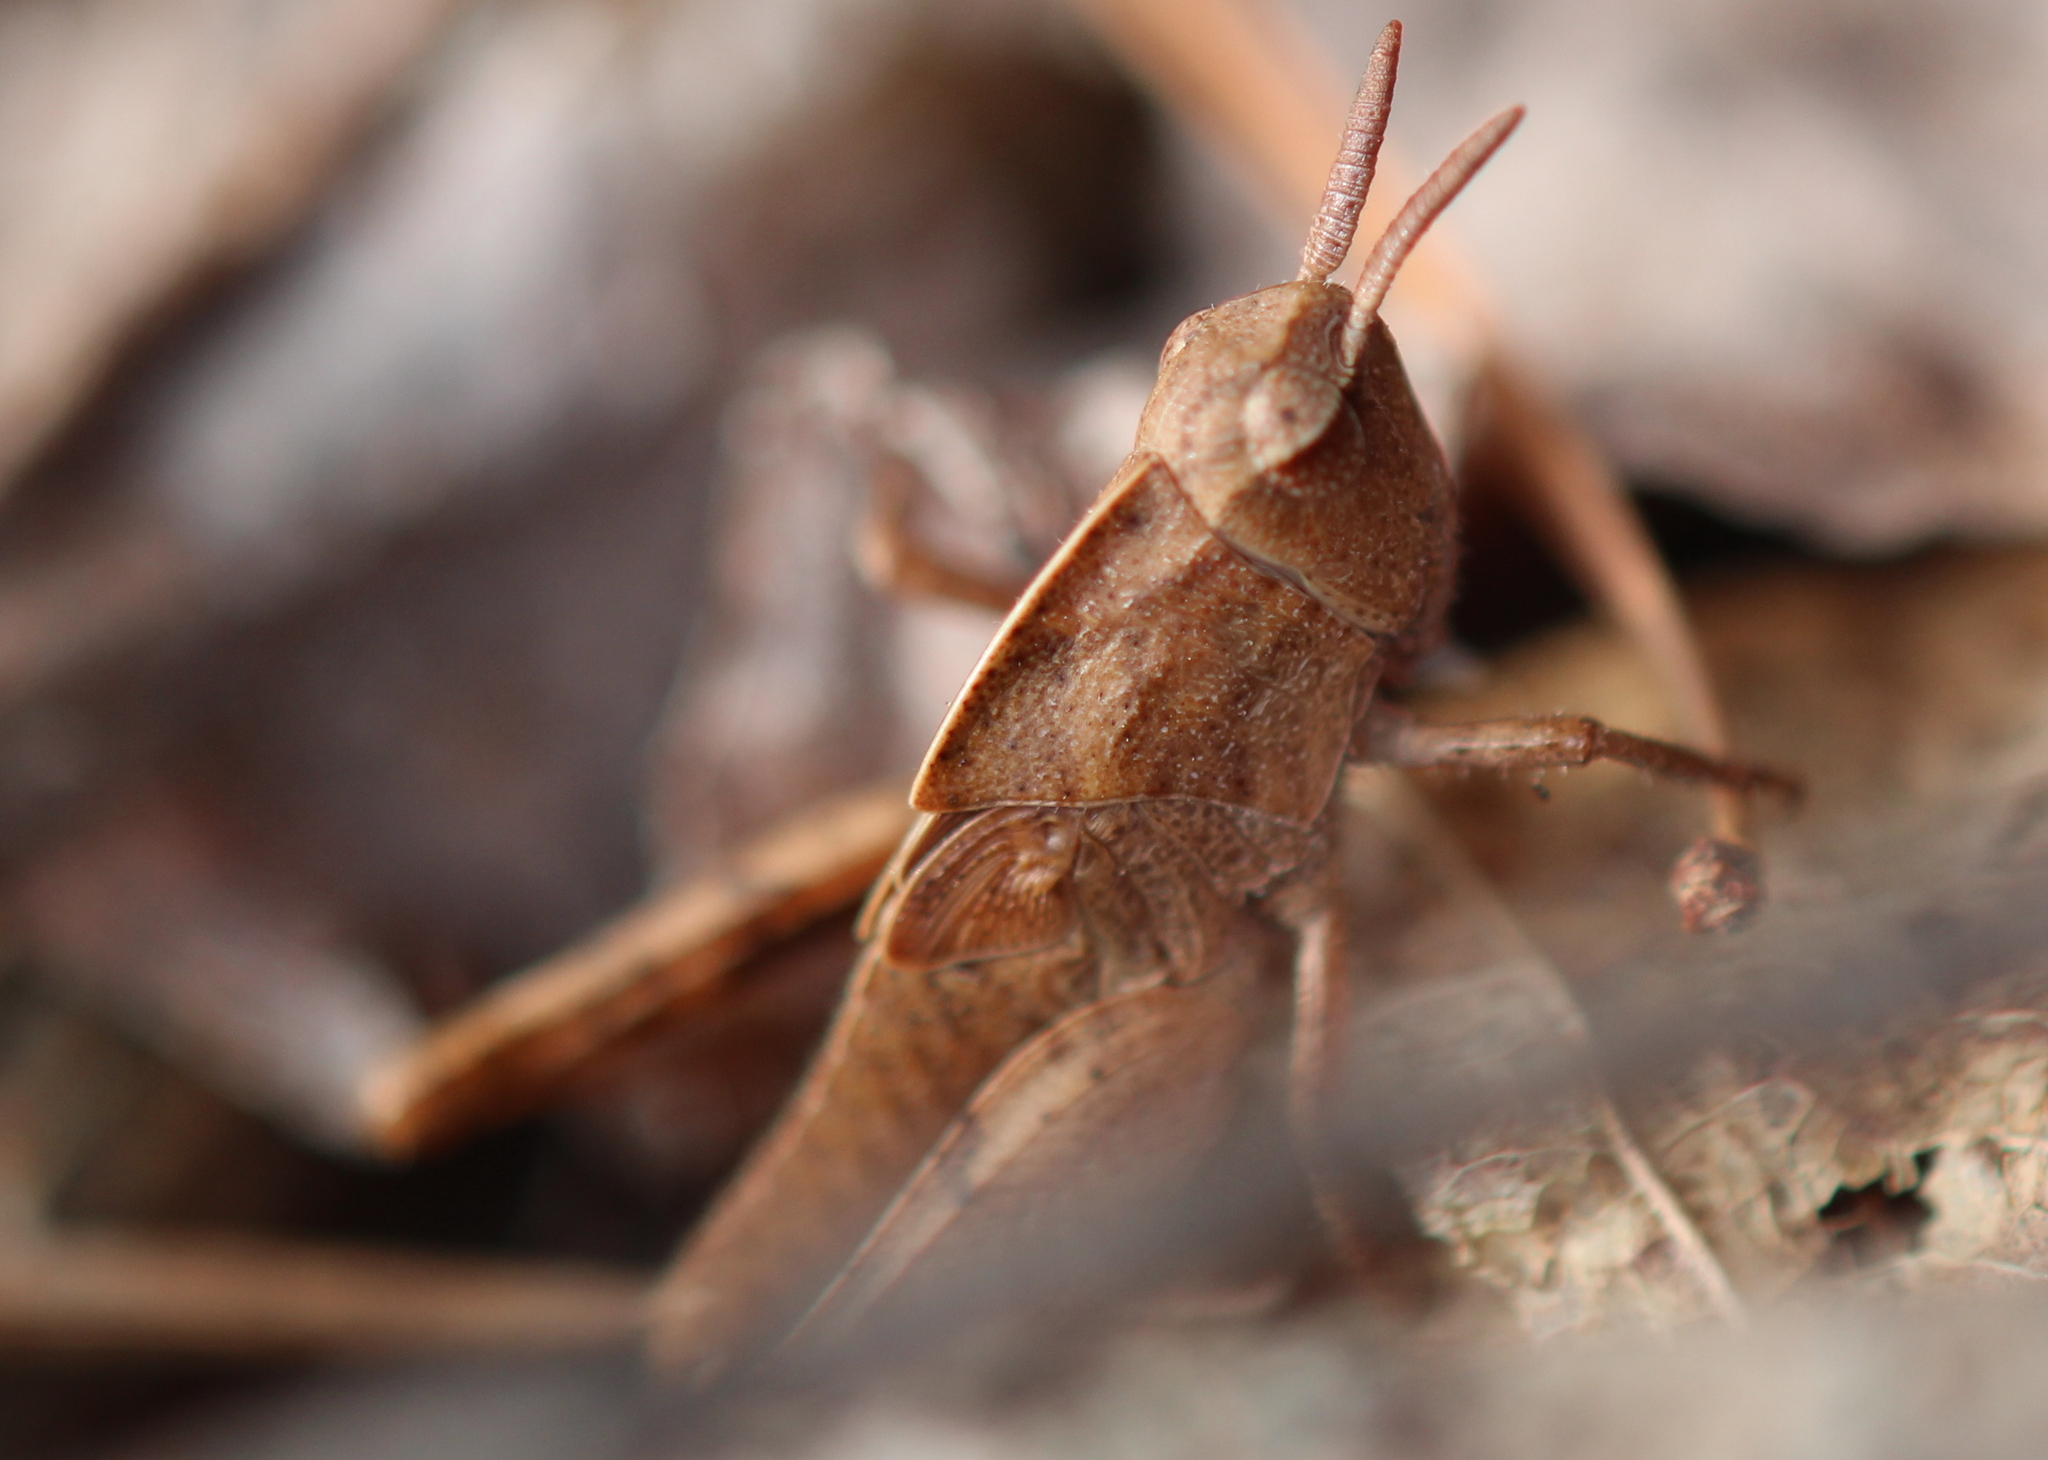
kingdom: Animalia
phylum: Arthropoda
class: Insecta
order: Orthoptera
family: Acrididae
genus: Chortophaga
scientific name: Chortophaga viridifasciata
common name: Green-striped grasshopper
